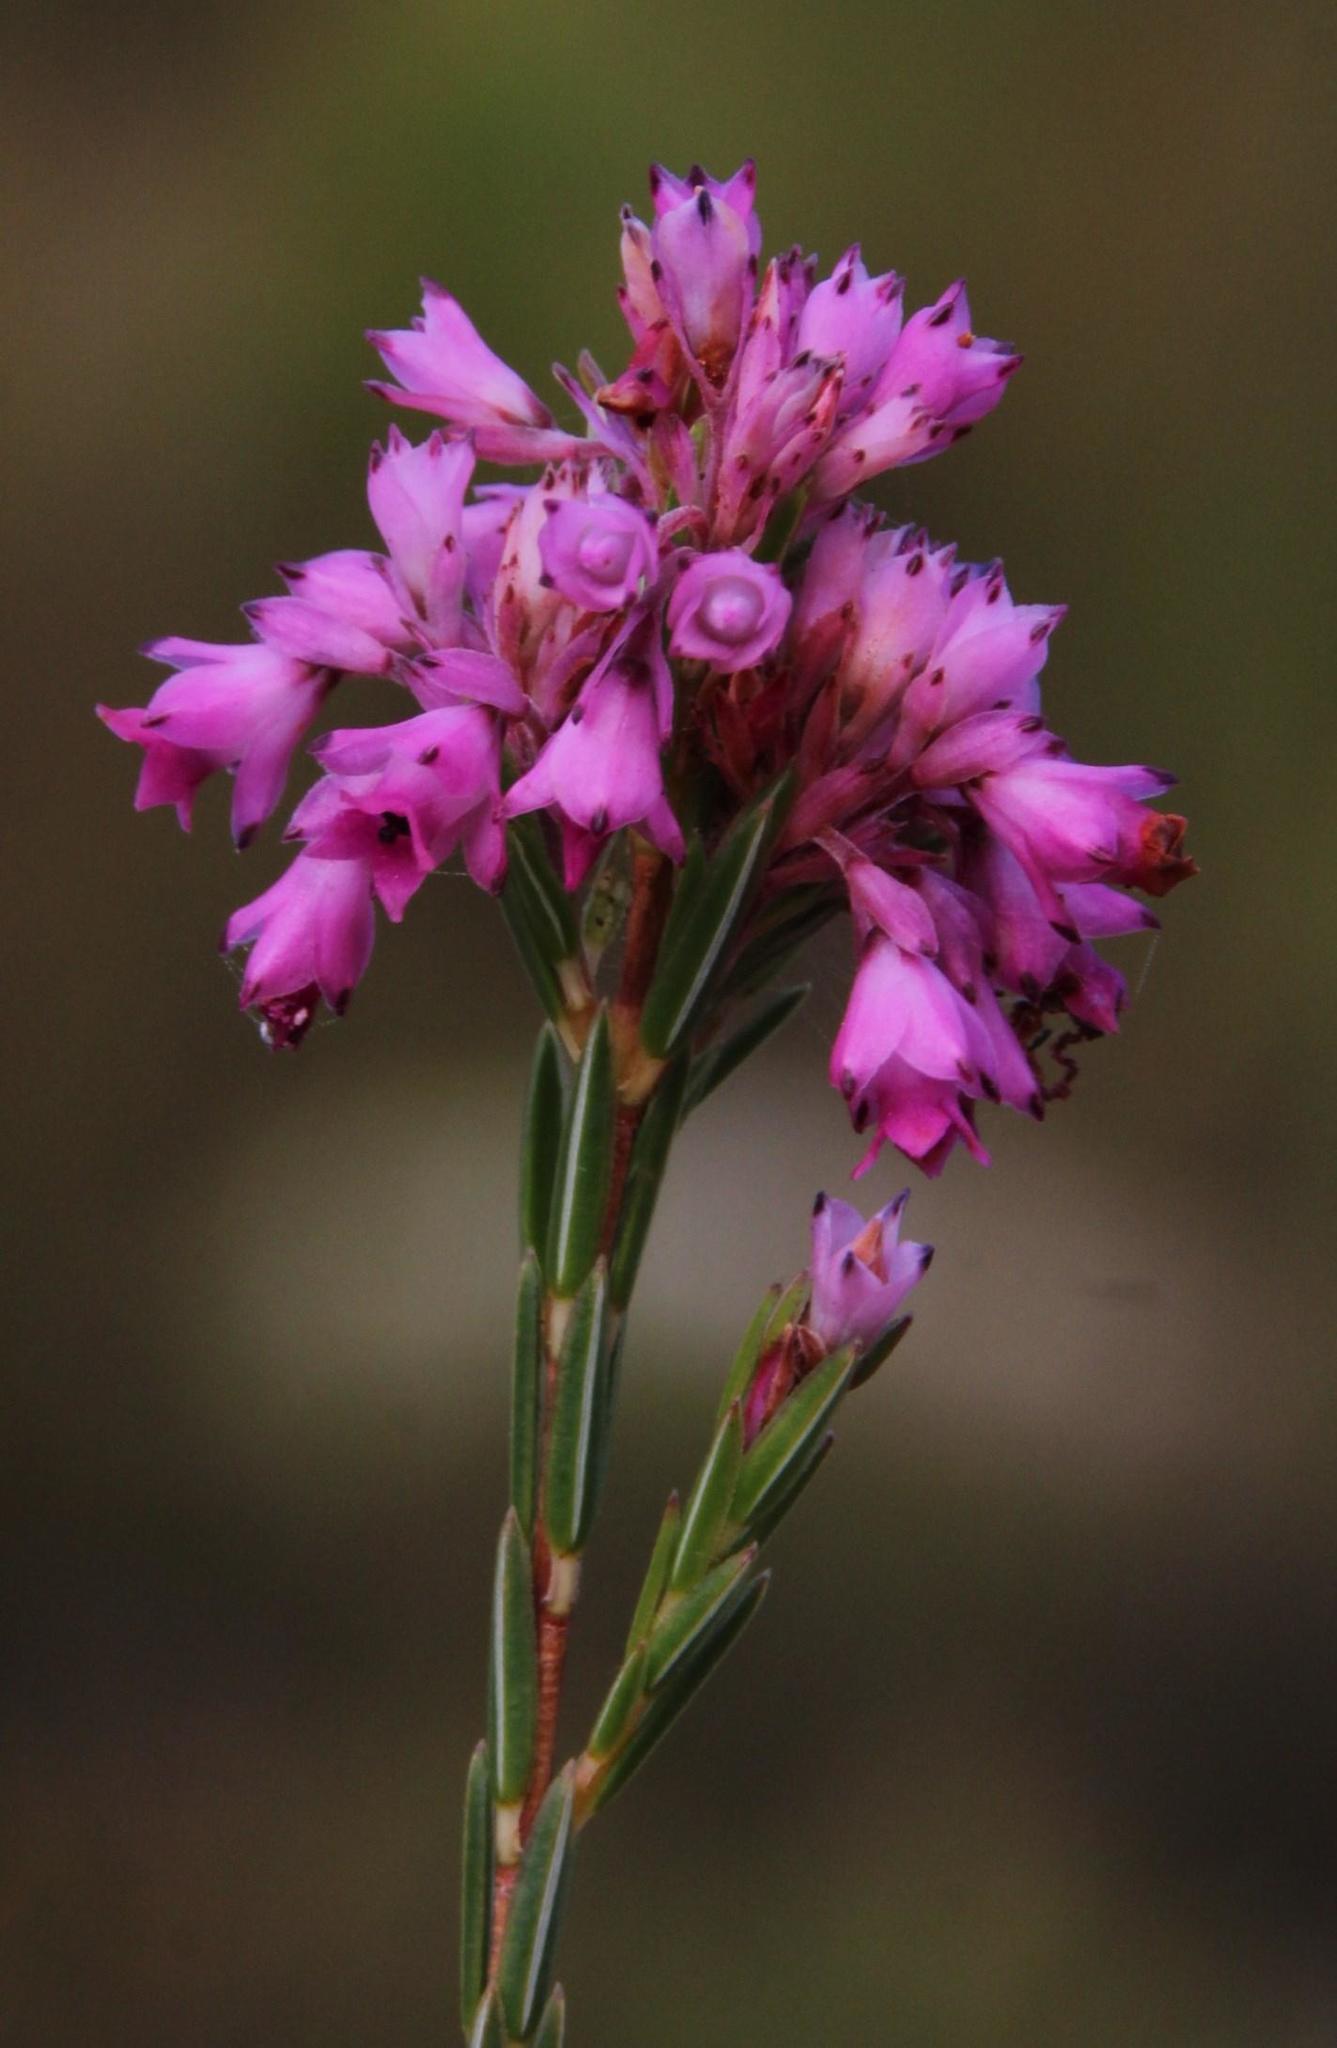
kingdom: Plantae
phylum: Tracheophyta
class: Magnoliopsida
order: Ericales
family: Ericaceae
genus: Erica
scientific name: Erica corifolia
